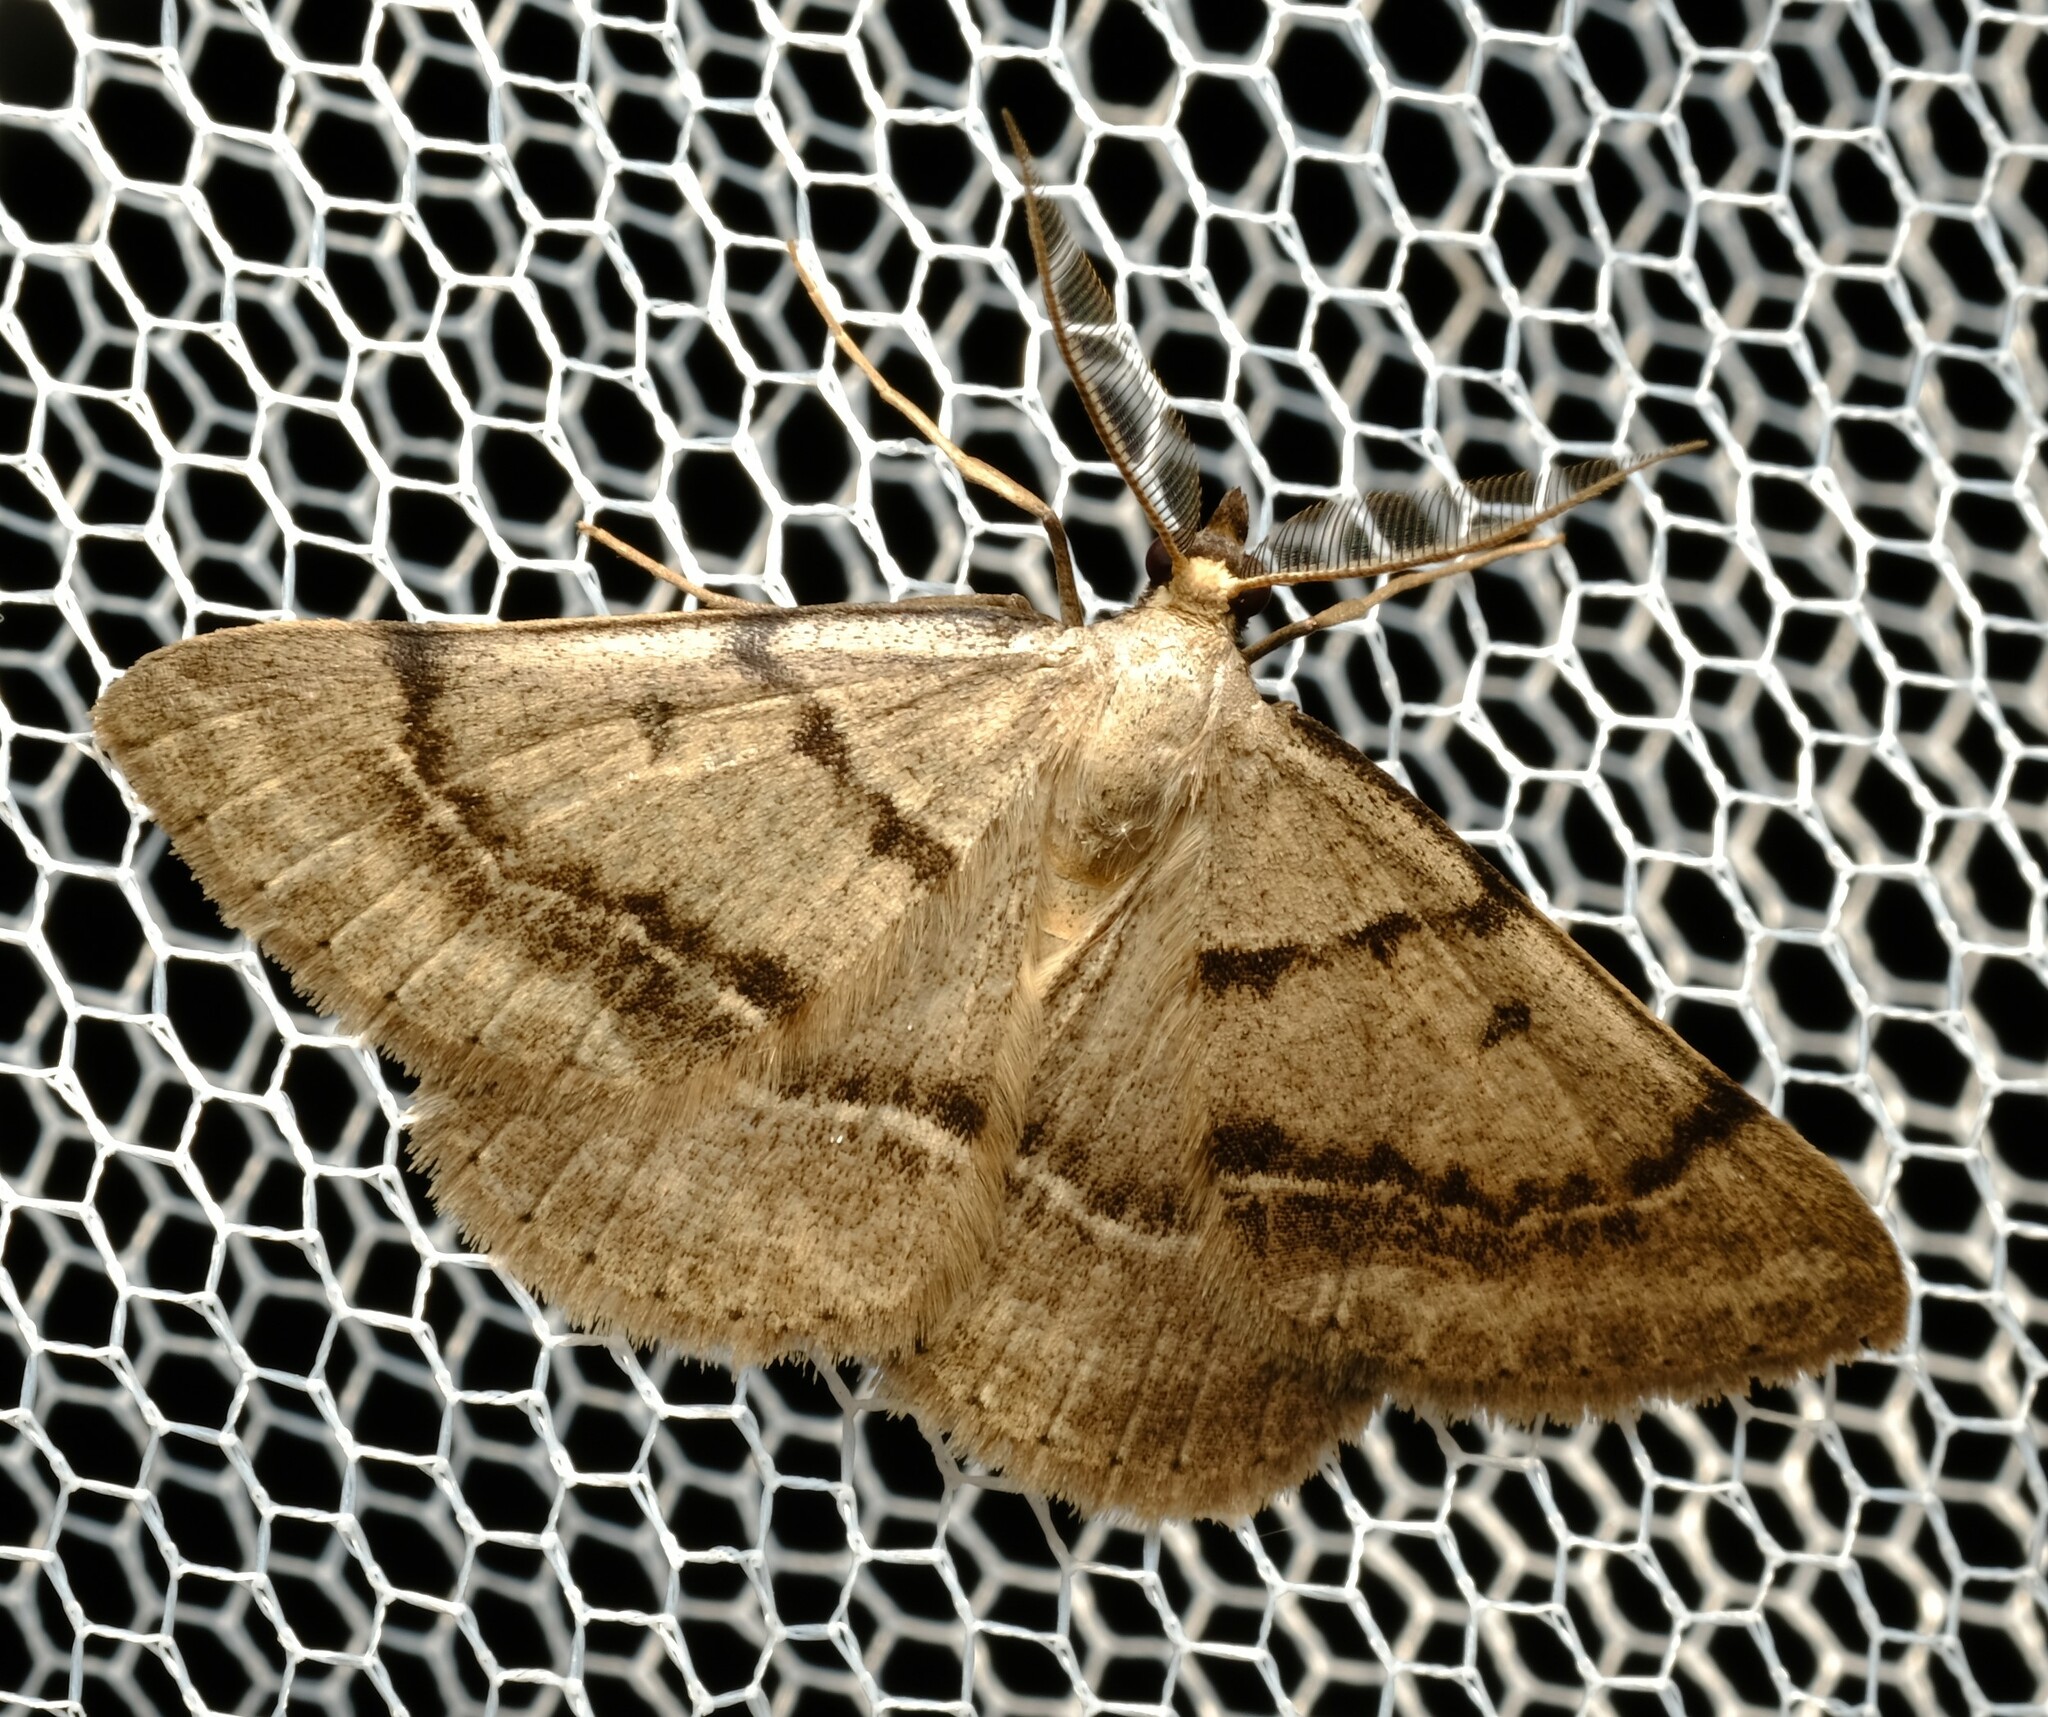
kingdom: Animalia
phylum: Arthropoda
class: Insecta
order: Lepidoptera
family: Geometridae
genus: Nearcha
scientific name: Nearcha caronia
